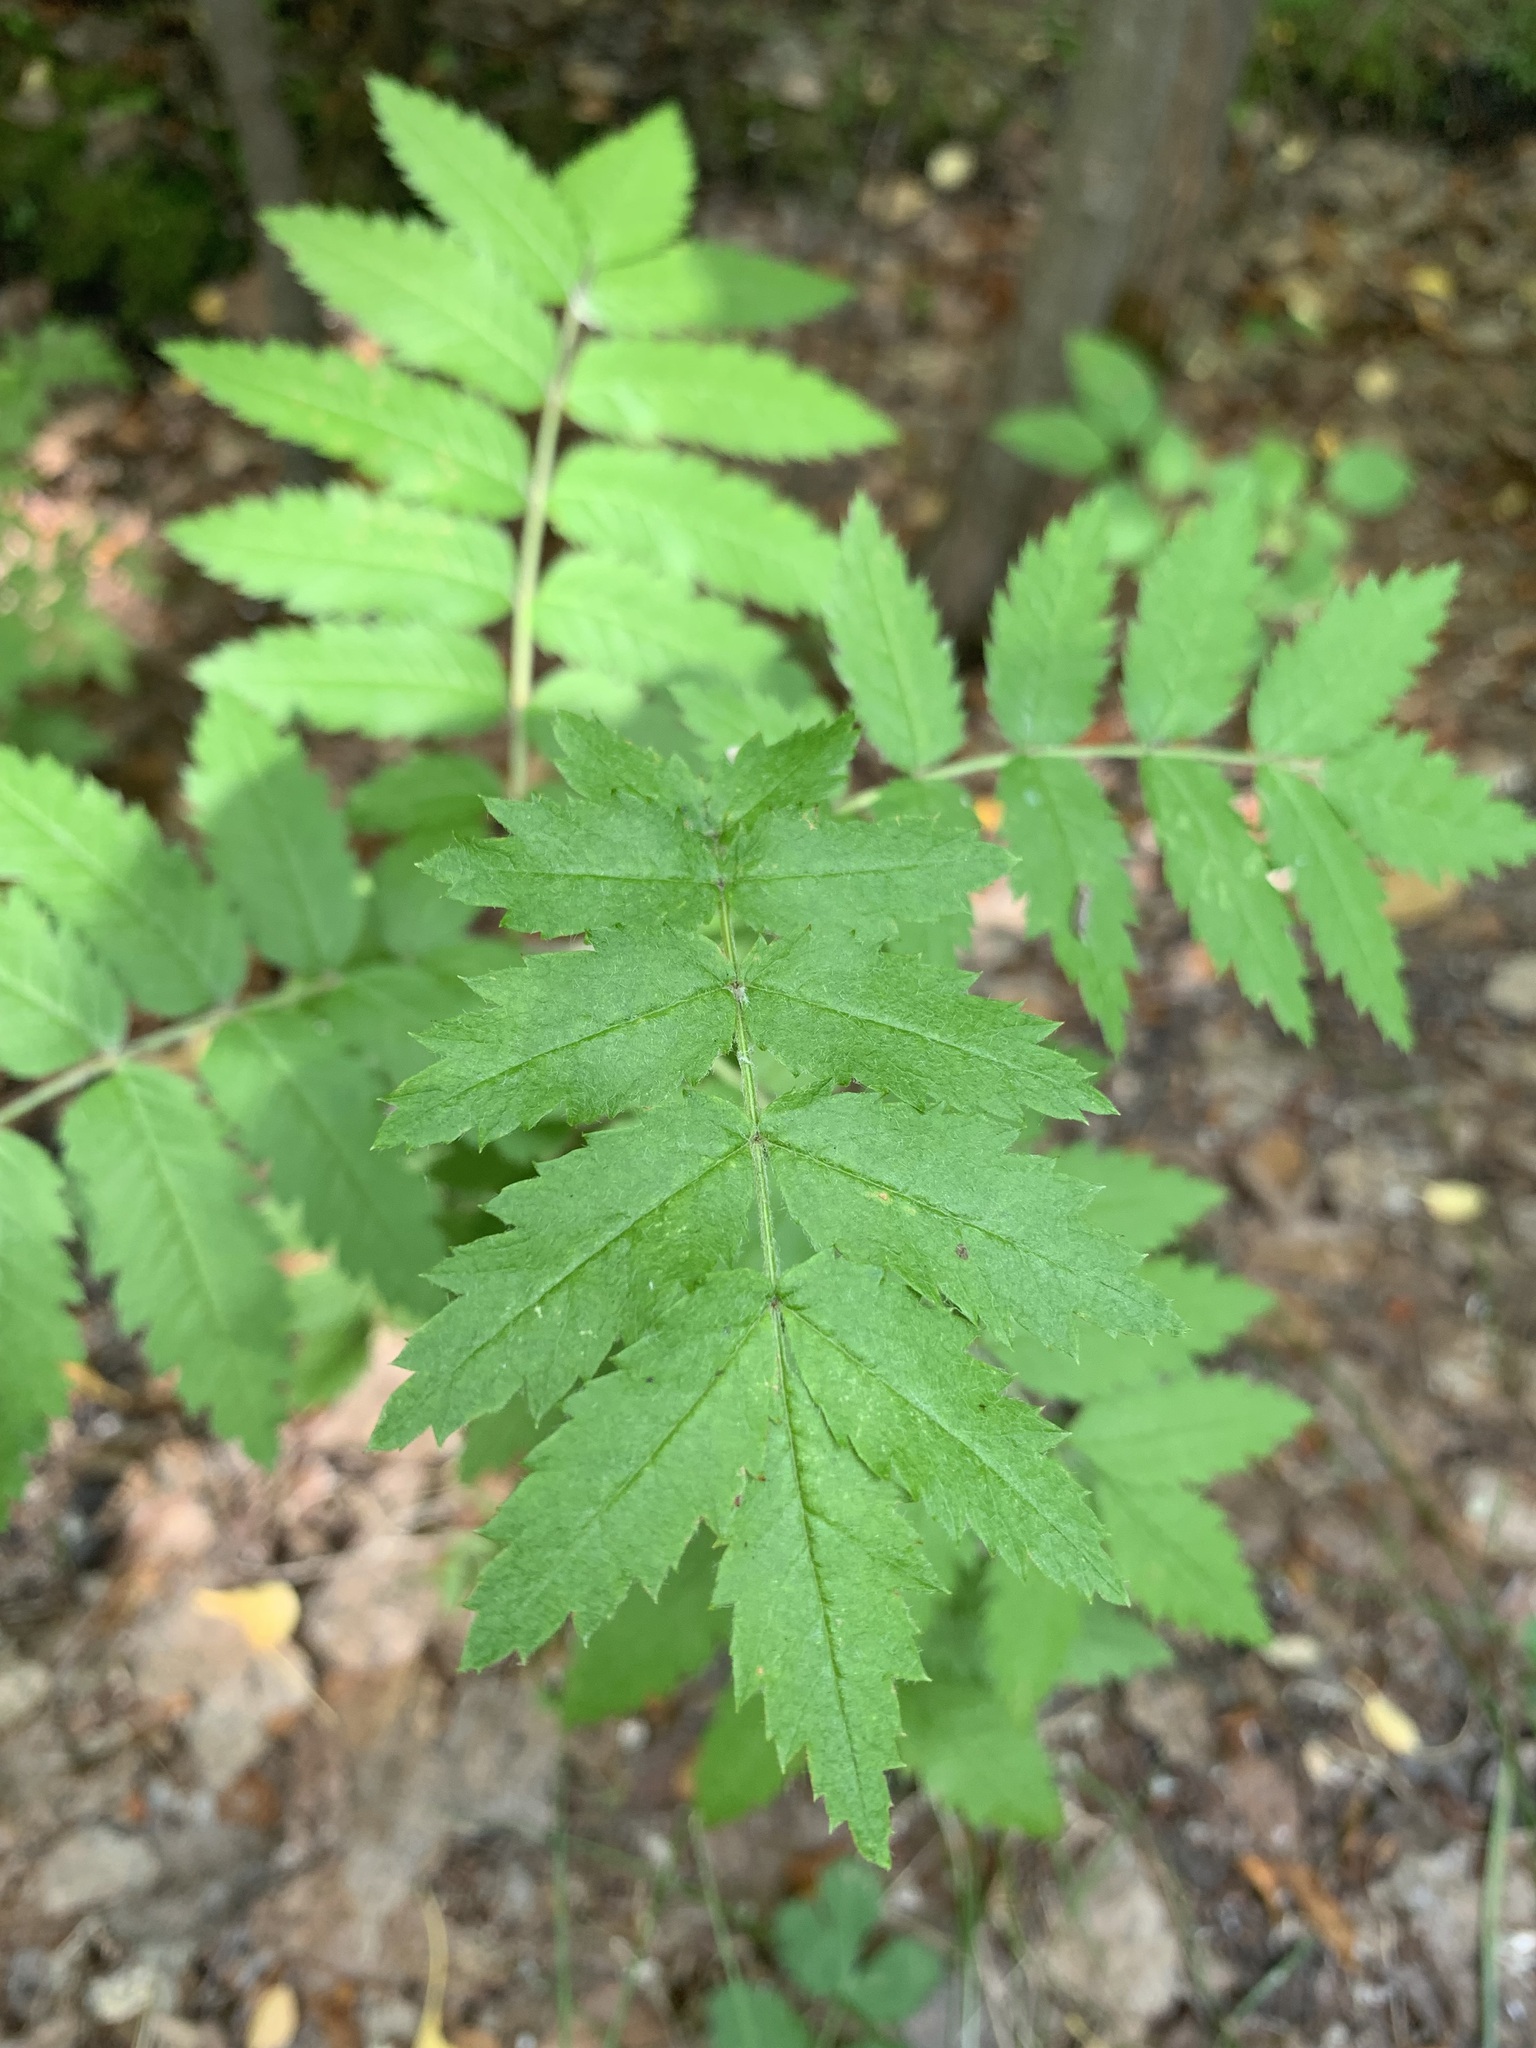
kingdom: Plantae
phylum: Tracheophyta
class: Magnoliopsida
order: Rosales
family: Rosaceae
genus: Sorbus
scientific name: Sorbus aucuparia
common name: Rowan
